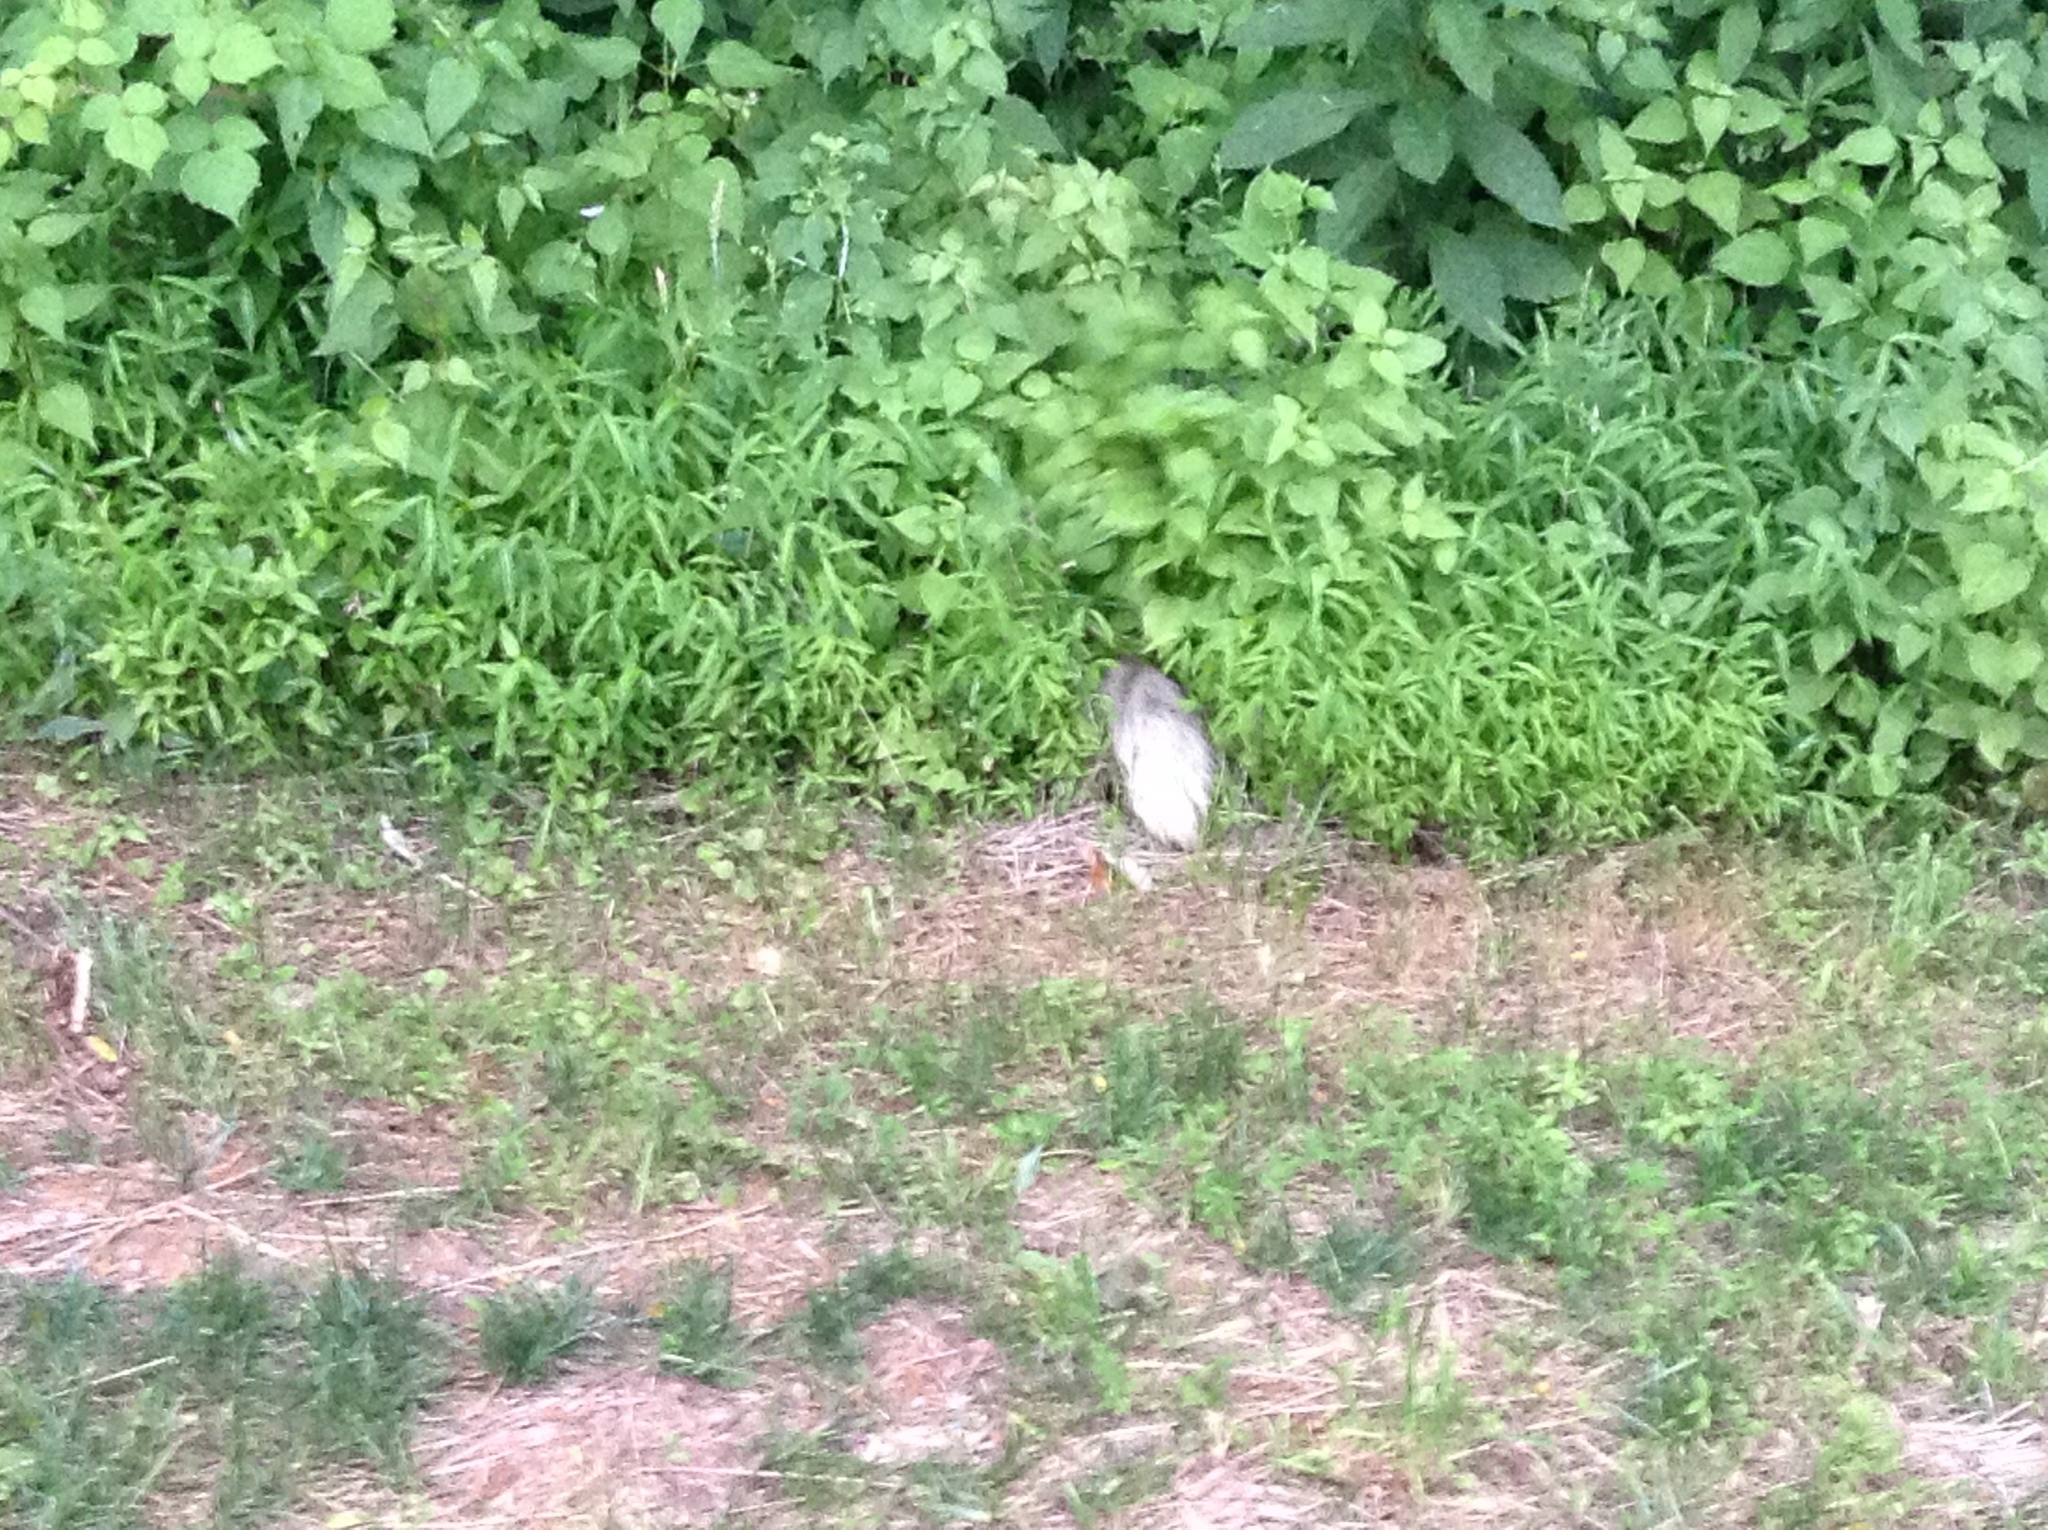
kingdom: Animalia
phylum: Chordata
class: Mammalia
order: Carnivora
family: Mephitidae
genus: Mephitis
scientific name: Mephitis mephitis
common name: Striped skunk
